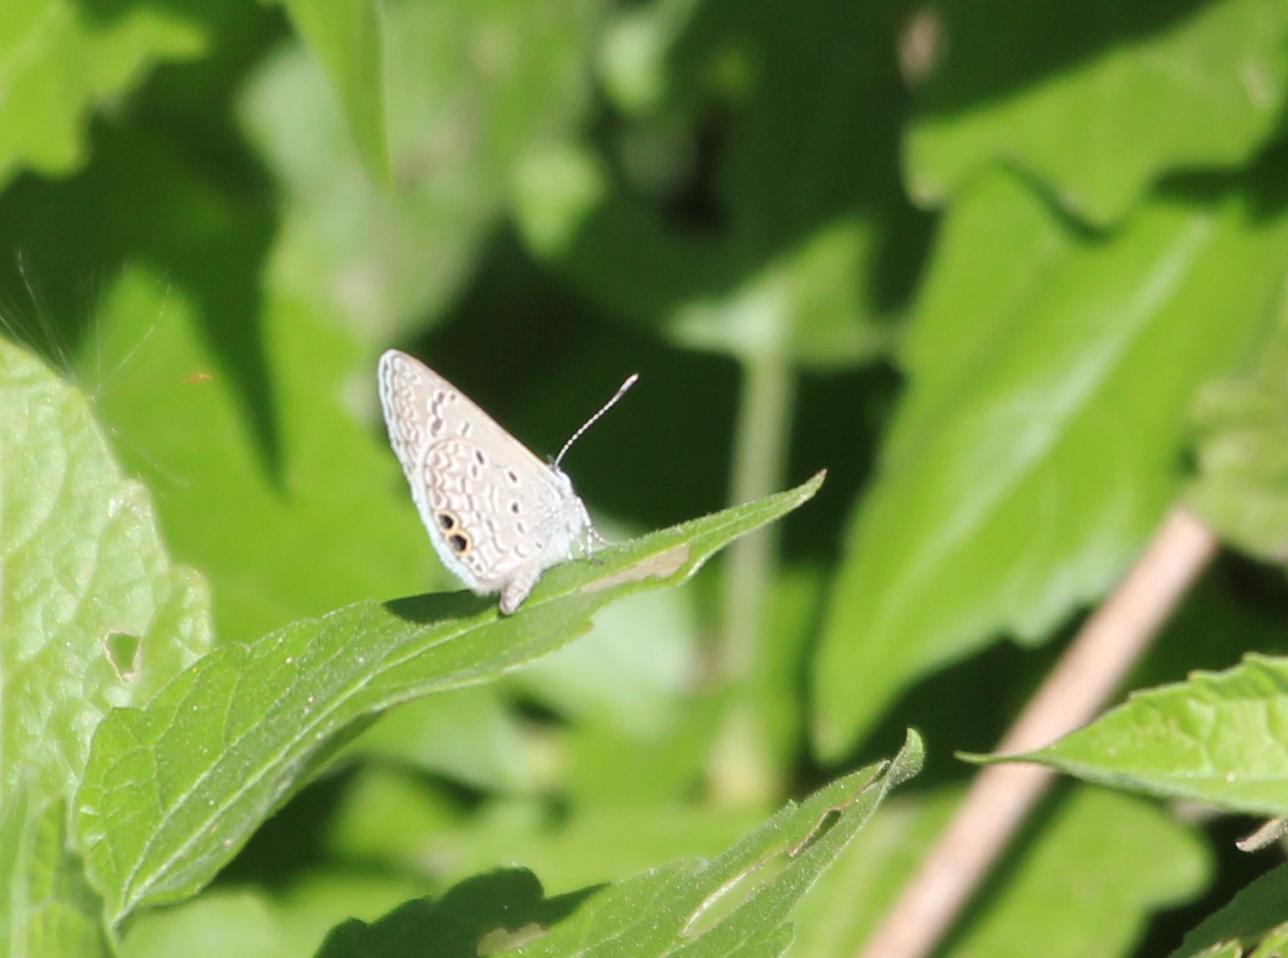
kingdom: Animalia
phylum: Arthropoda
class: Insecta
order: Lepidoptera
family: Lycaenidae
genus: Hemiargus
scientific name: Hemiargus ceraunus
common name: Ceraunus blue
